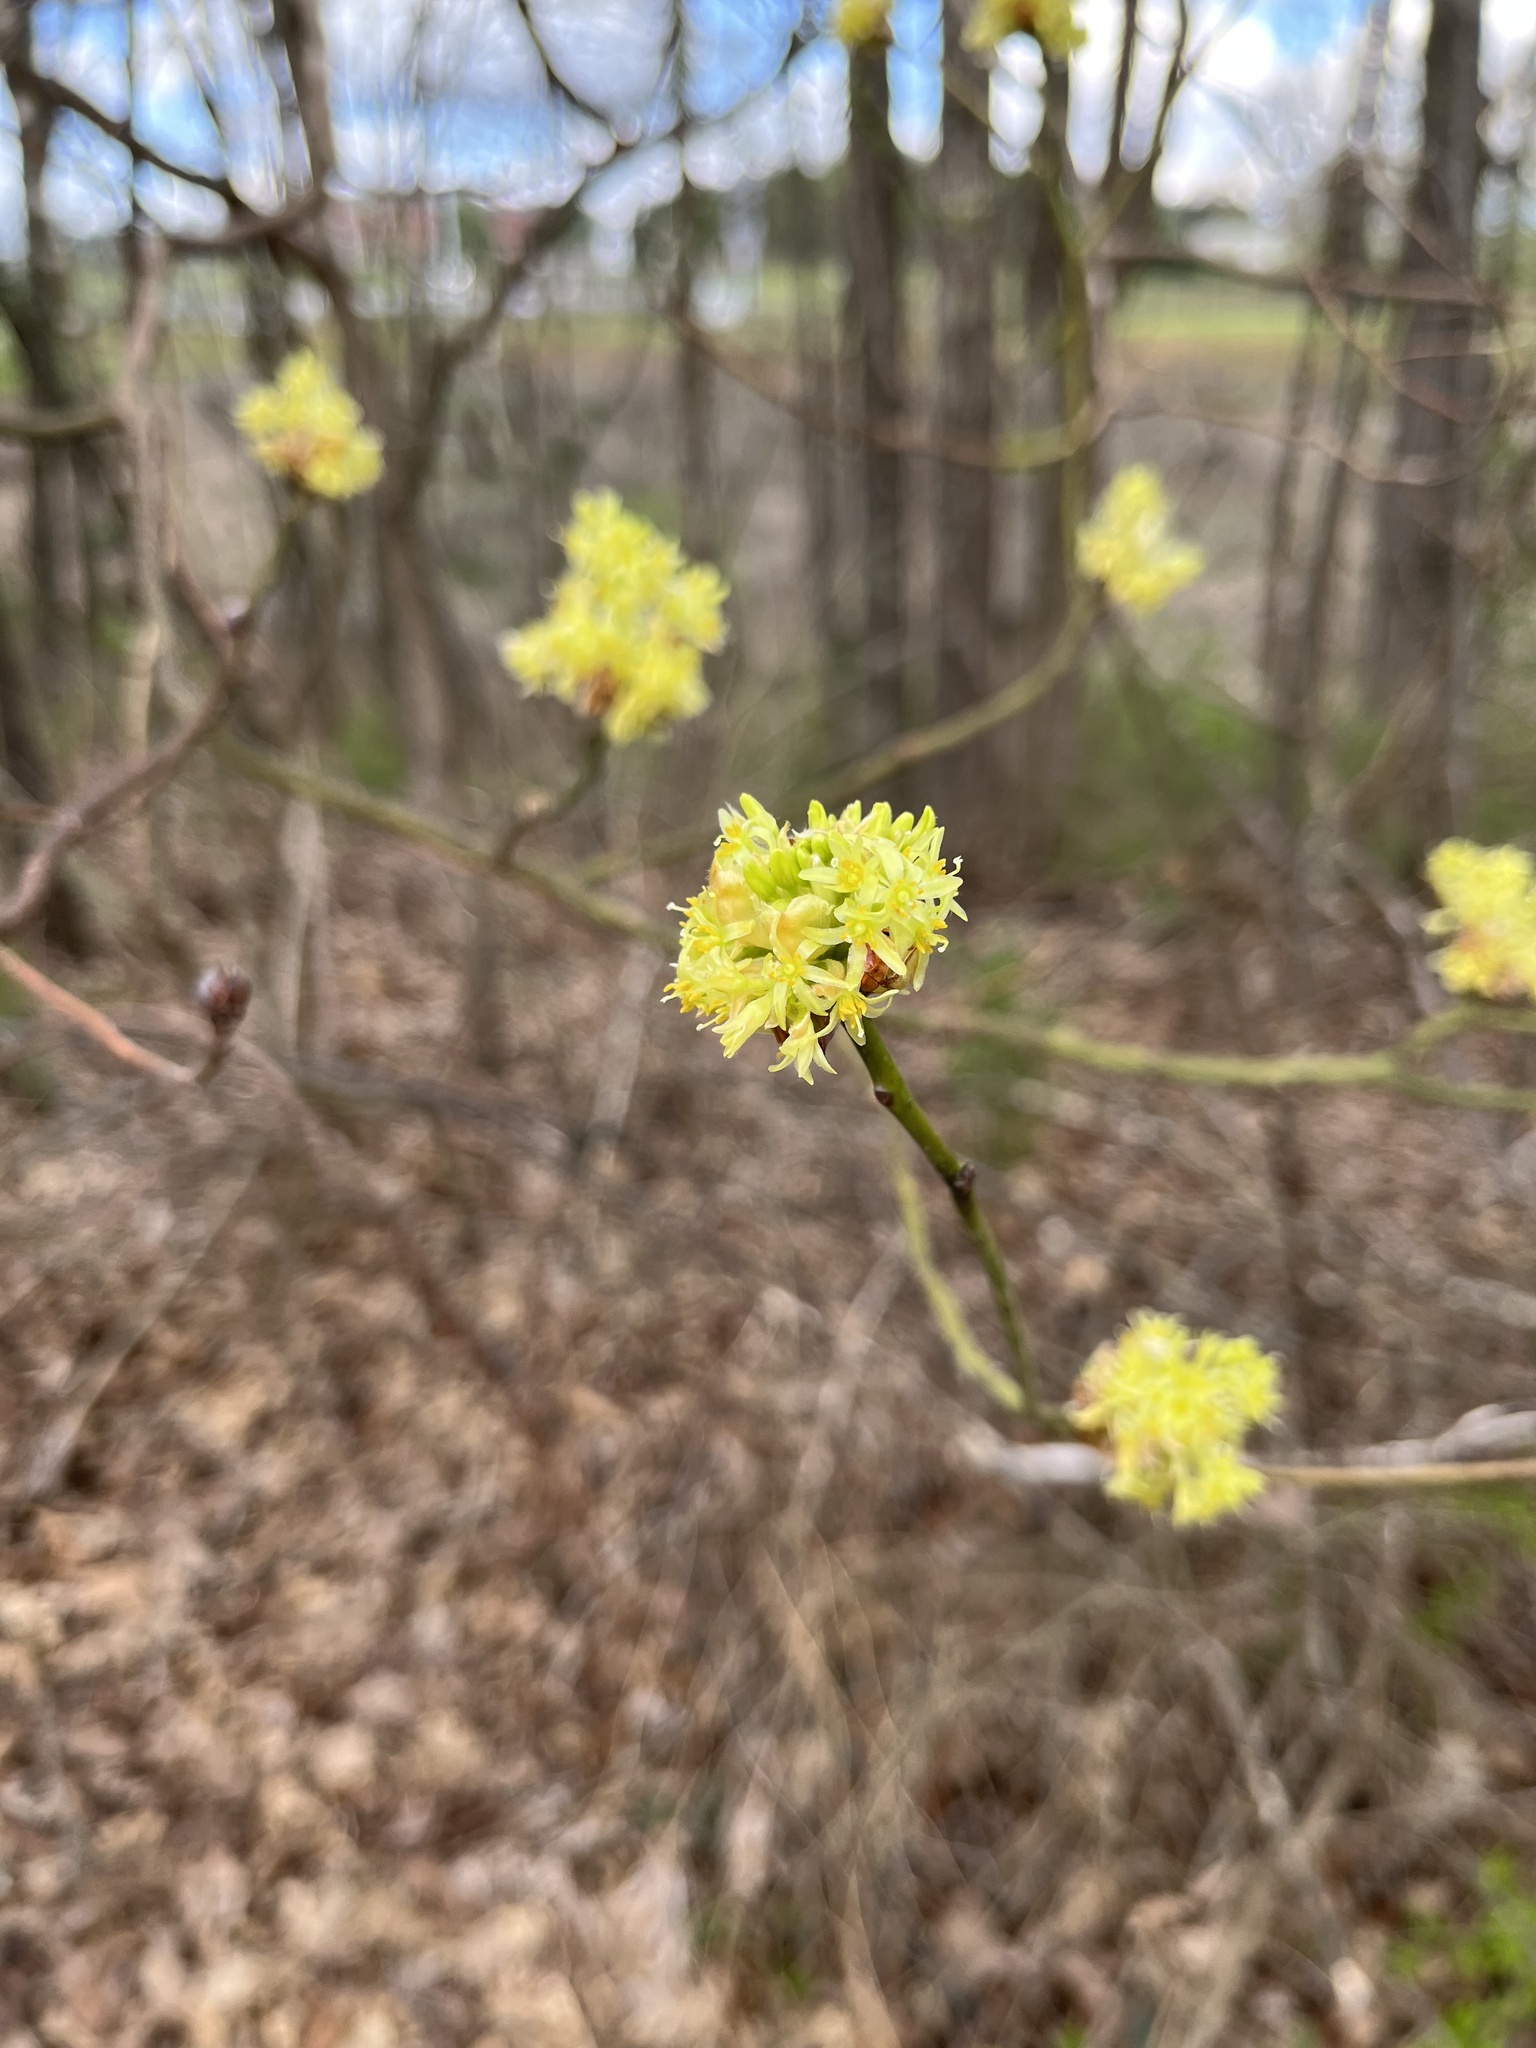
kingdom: Plantae
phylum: Tracheophyta
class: Magnoliopsida
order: Laurales
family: Lauraceae
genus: Sassafras
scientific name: Sassafras albidum
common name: Sassafras
